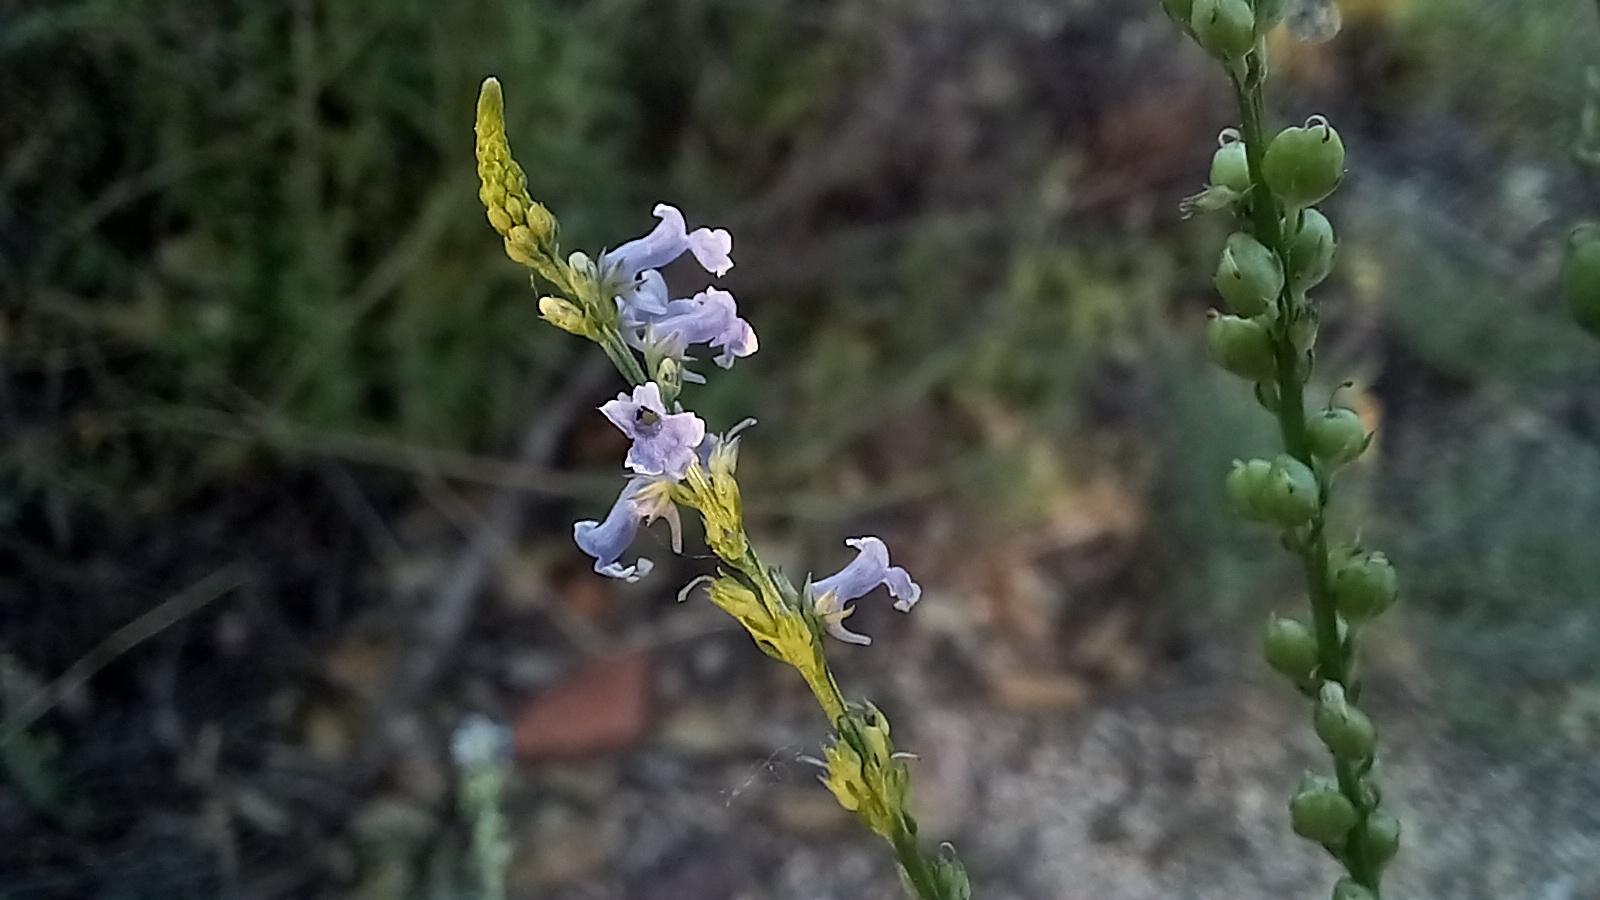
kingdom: Plantae
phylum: Tracheophyta
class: Magnoliopsida
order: Lamiales
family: Plantaginaceae
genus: Anarrhinum
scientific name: Anarrhinum bellidifolium
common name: Daisy-leaved toadflax
